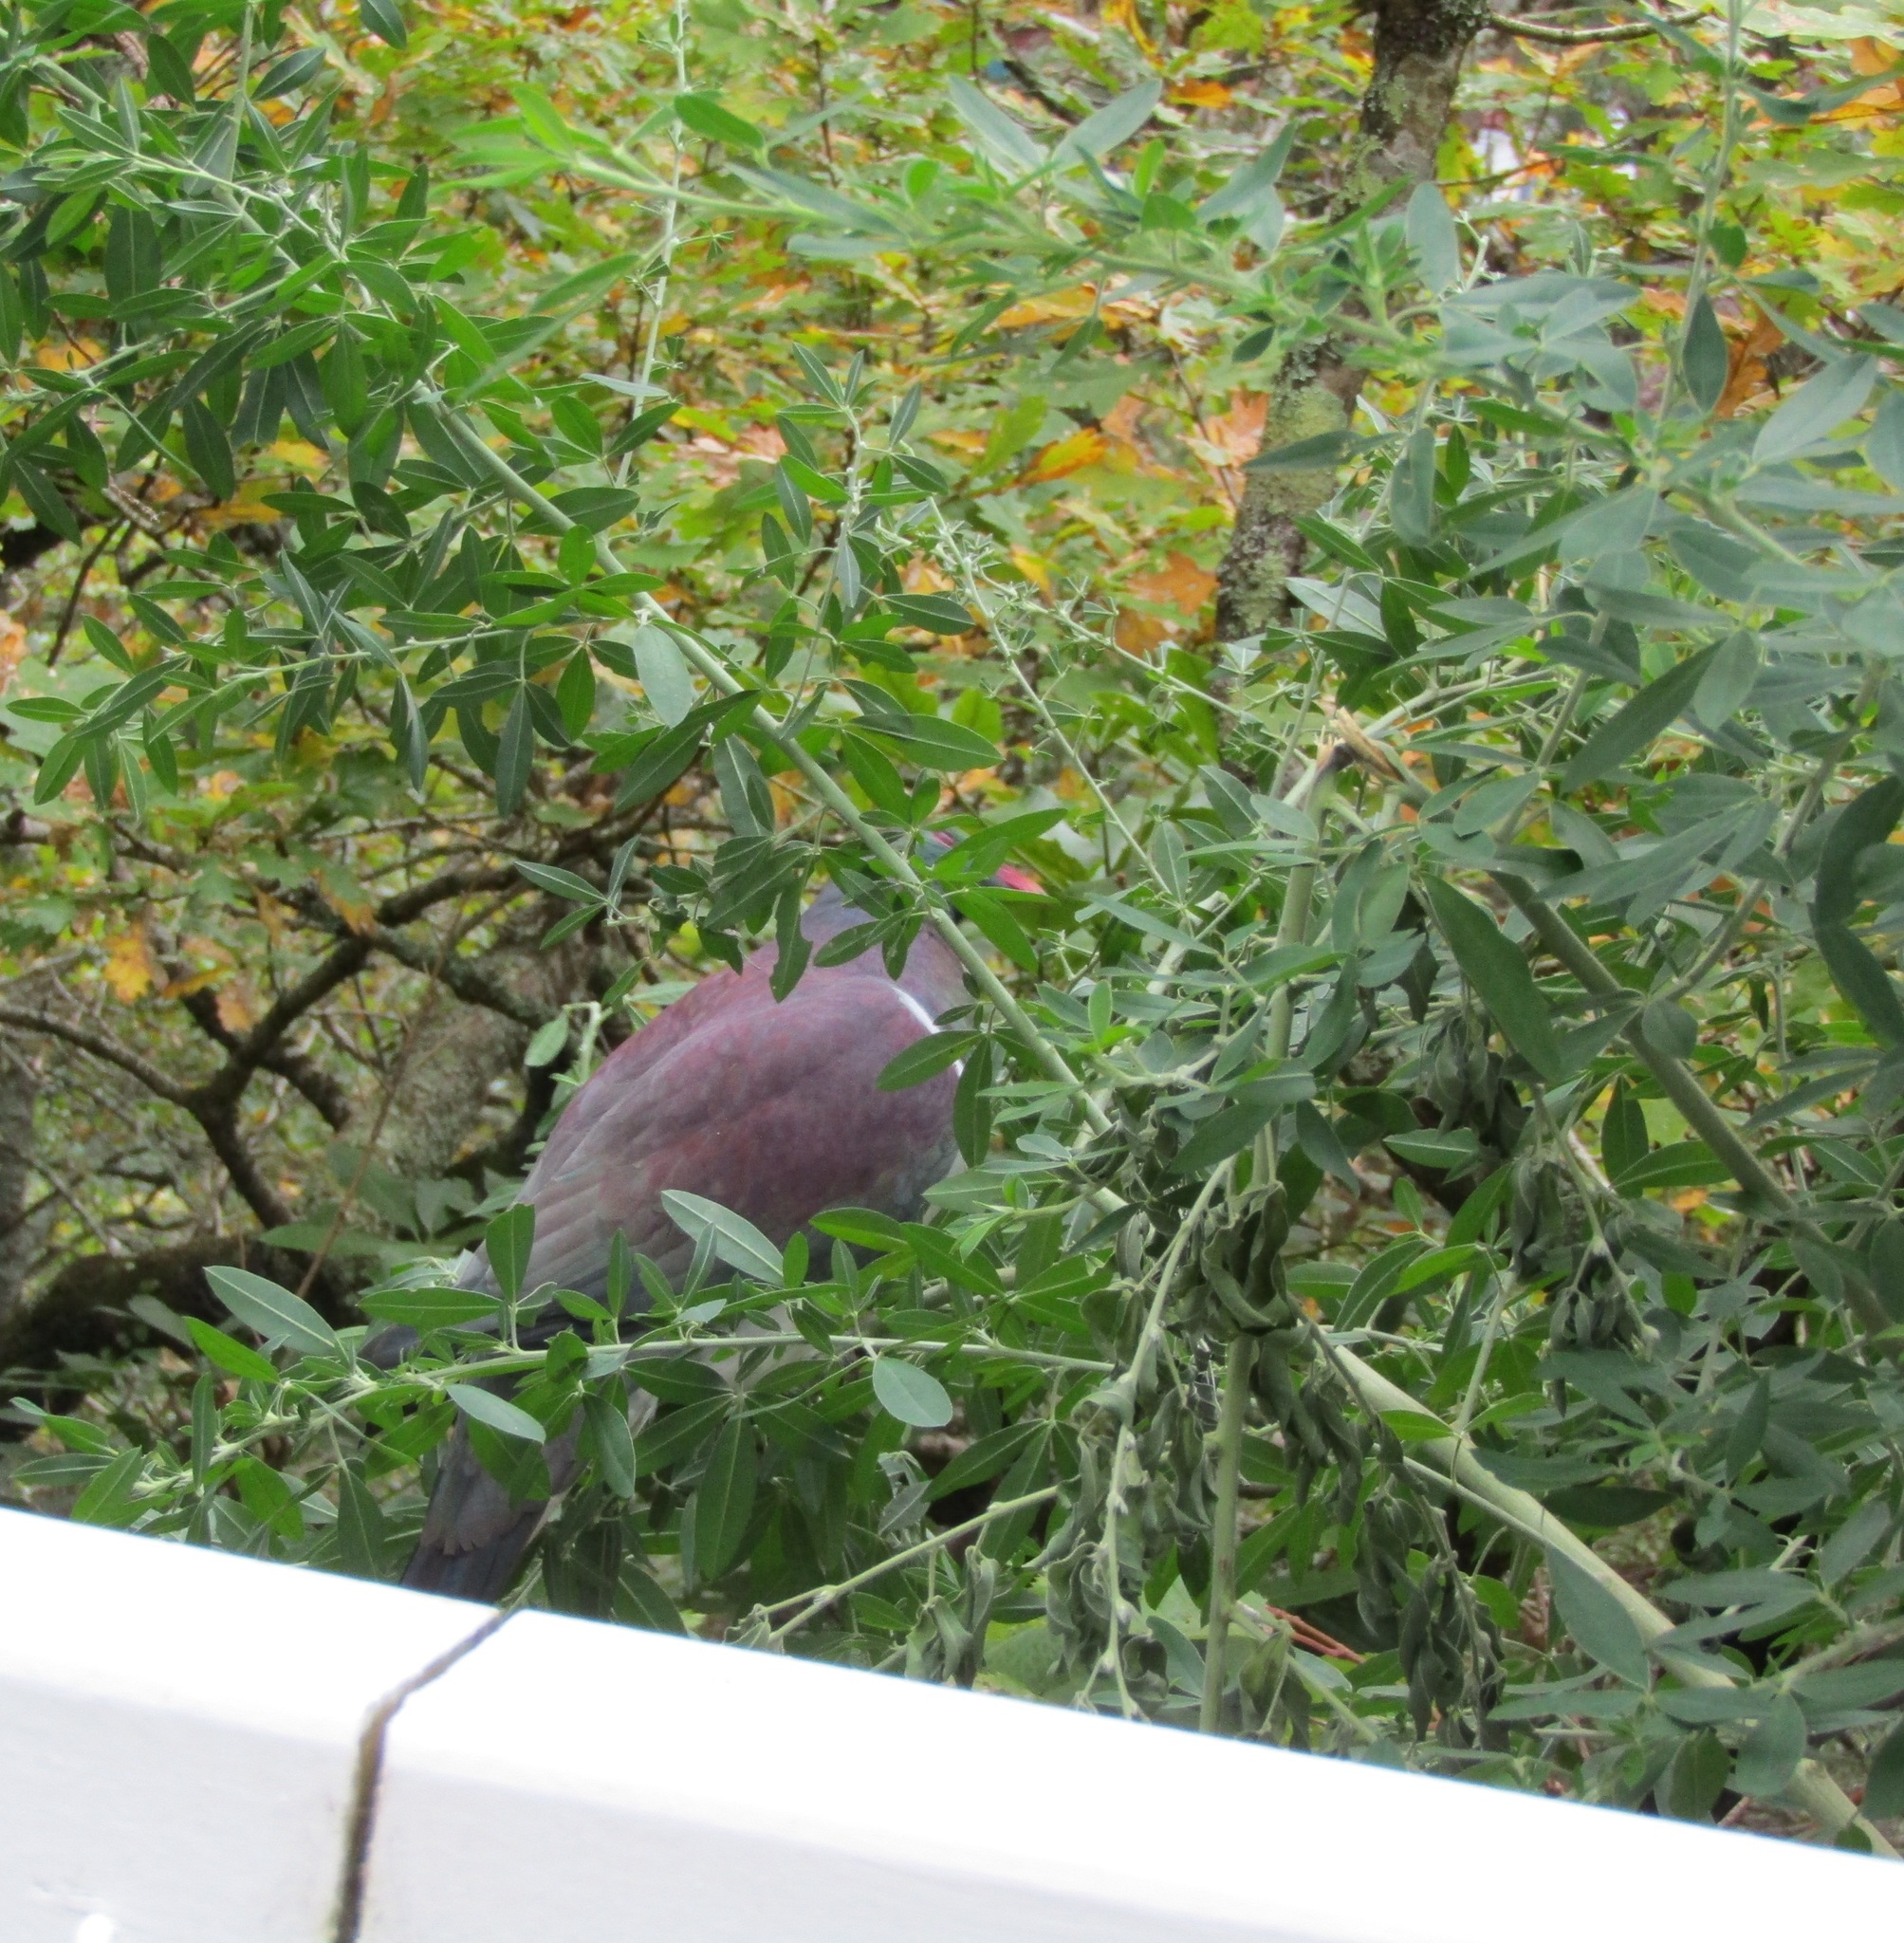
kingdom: Animalia
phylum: Chordata
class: Aves
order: Columbiformes
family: Columbidae
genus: Hemiphaga
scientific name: Hemiphaga novaeseelandiae
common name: New zealand pigeon
